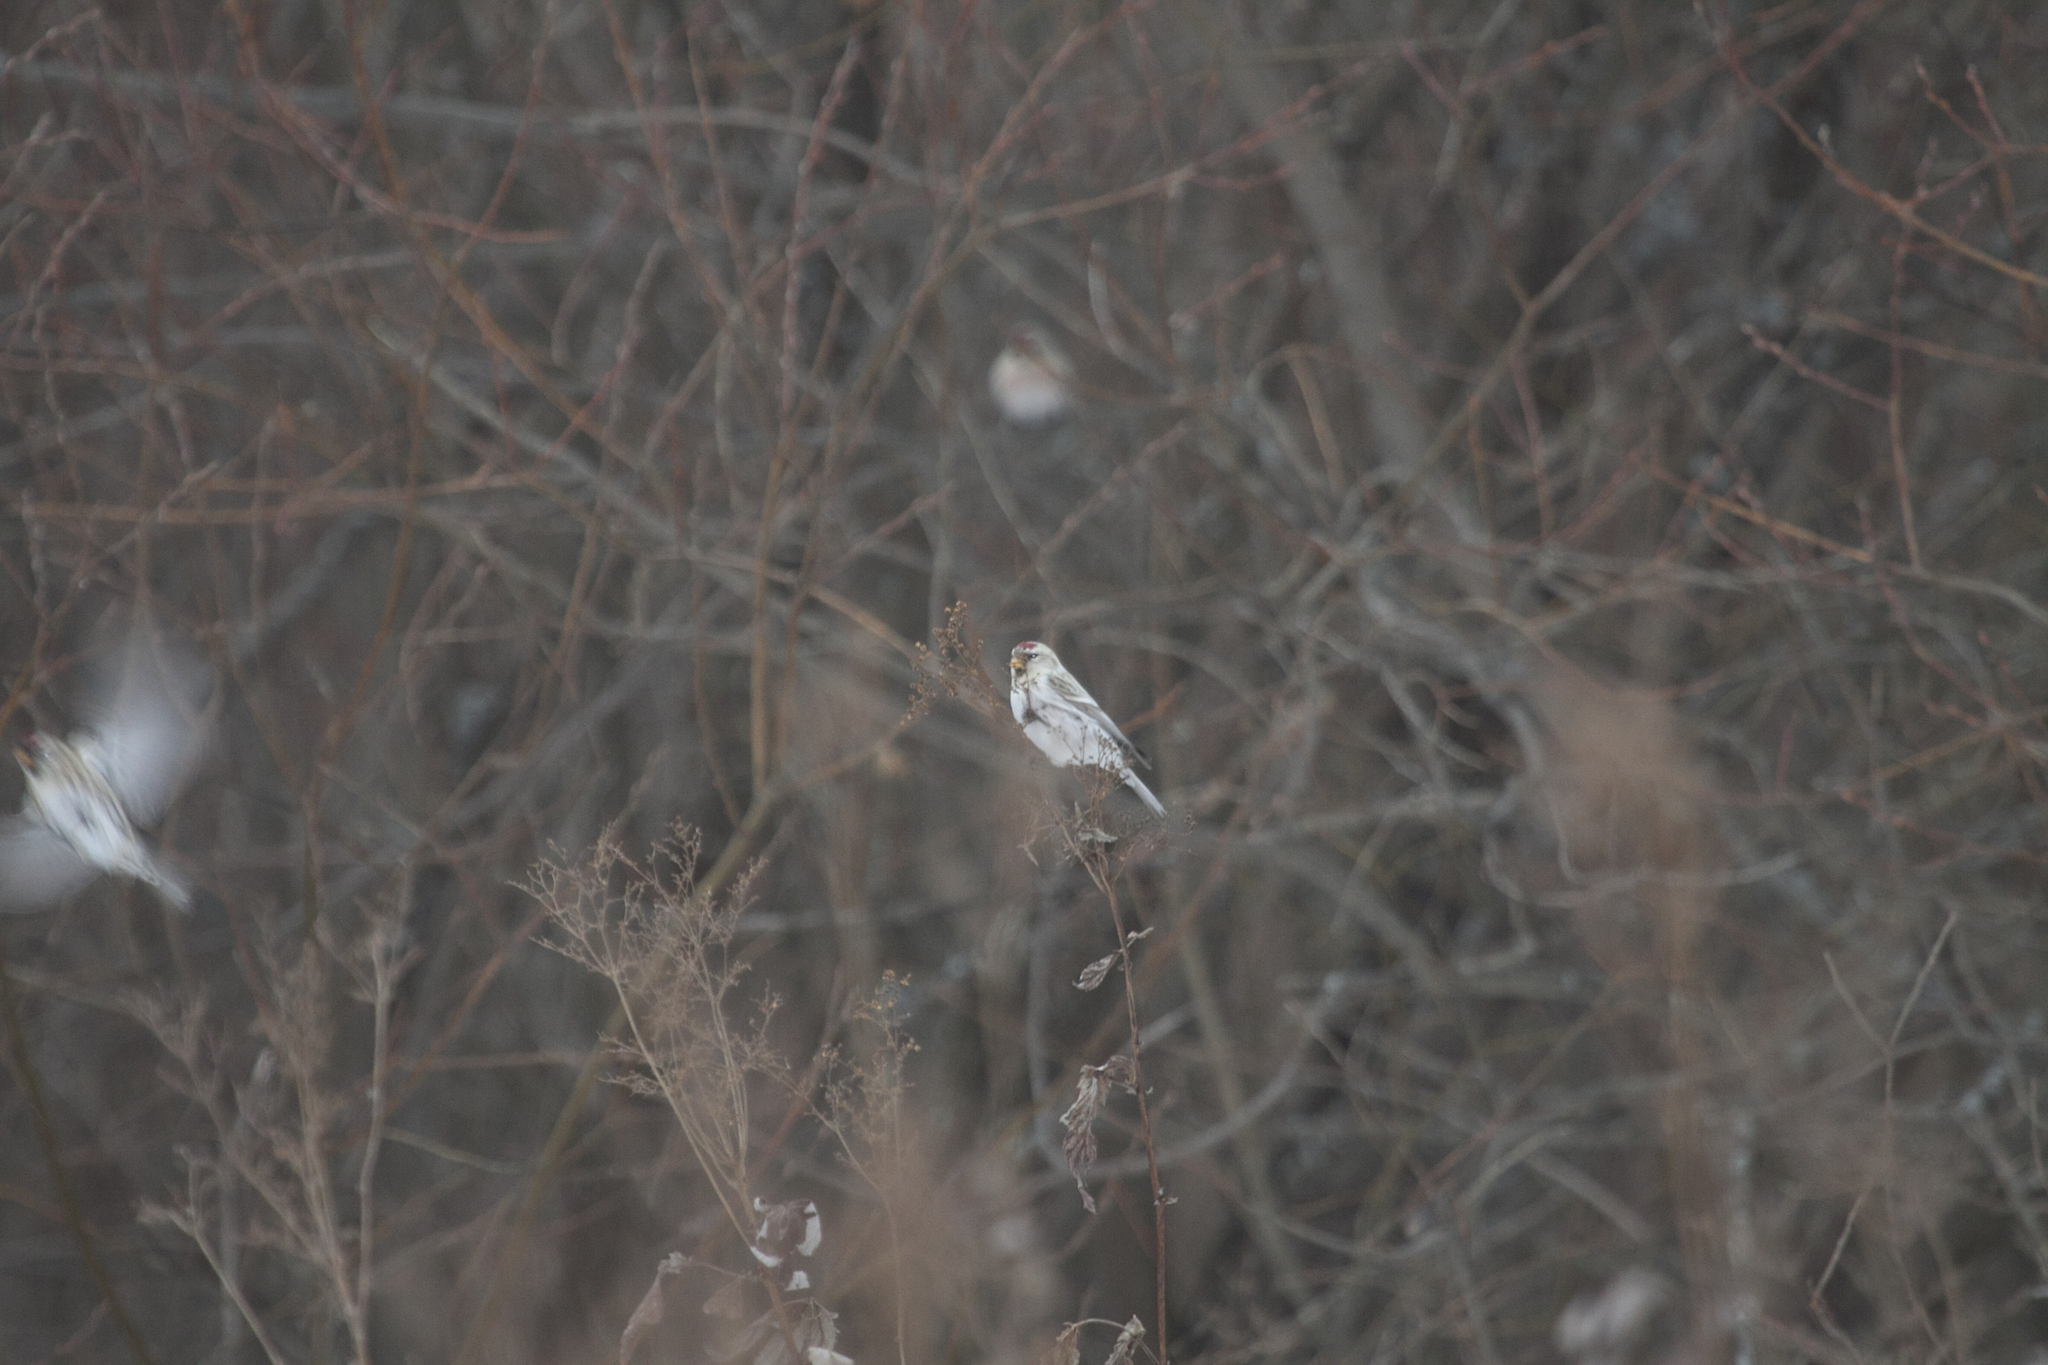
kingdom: Animalia
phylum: Chordata
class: Aves
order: Passeriformes
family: Fringillidae
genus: Acanthis
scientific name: Acanthis hornemanni
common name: Arctic redpoll
